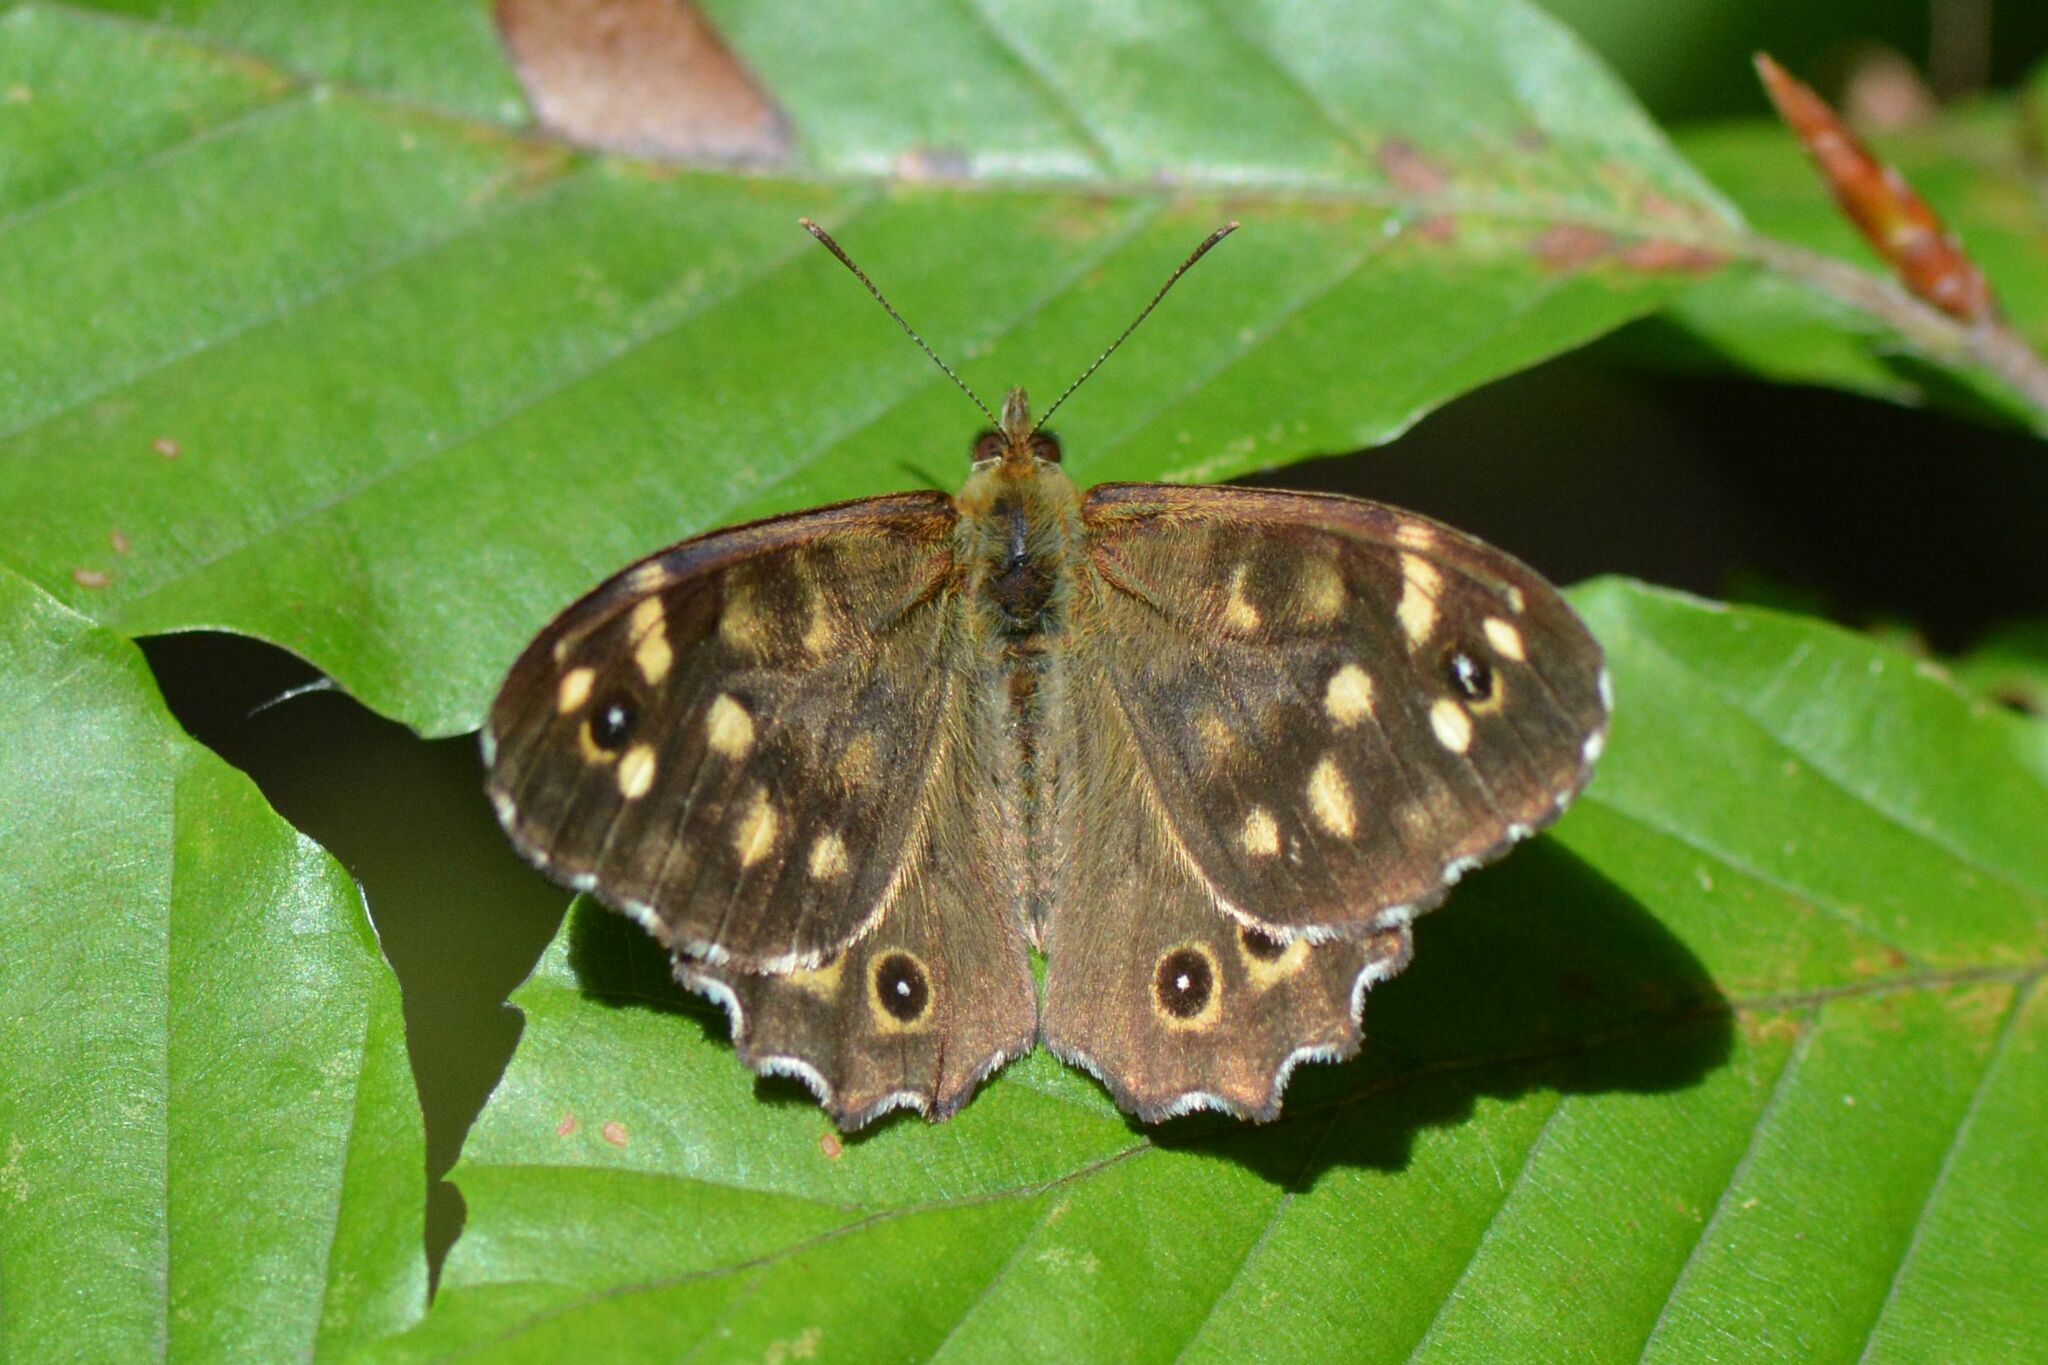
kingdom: Animalia
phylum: Arthropoda
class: Insecta
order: Lepidoptera
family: Nymphalidae
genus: Pararge
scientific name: Pararge aegeria
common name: Speckled wood
